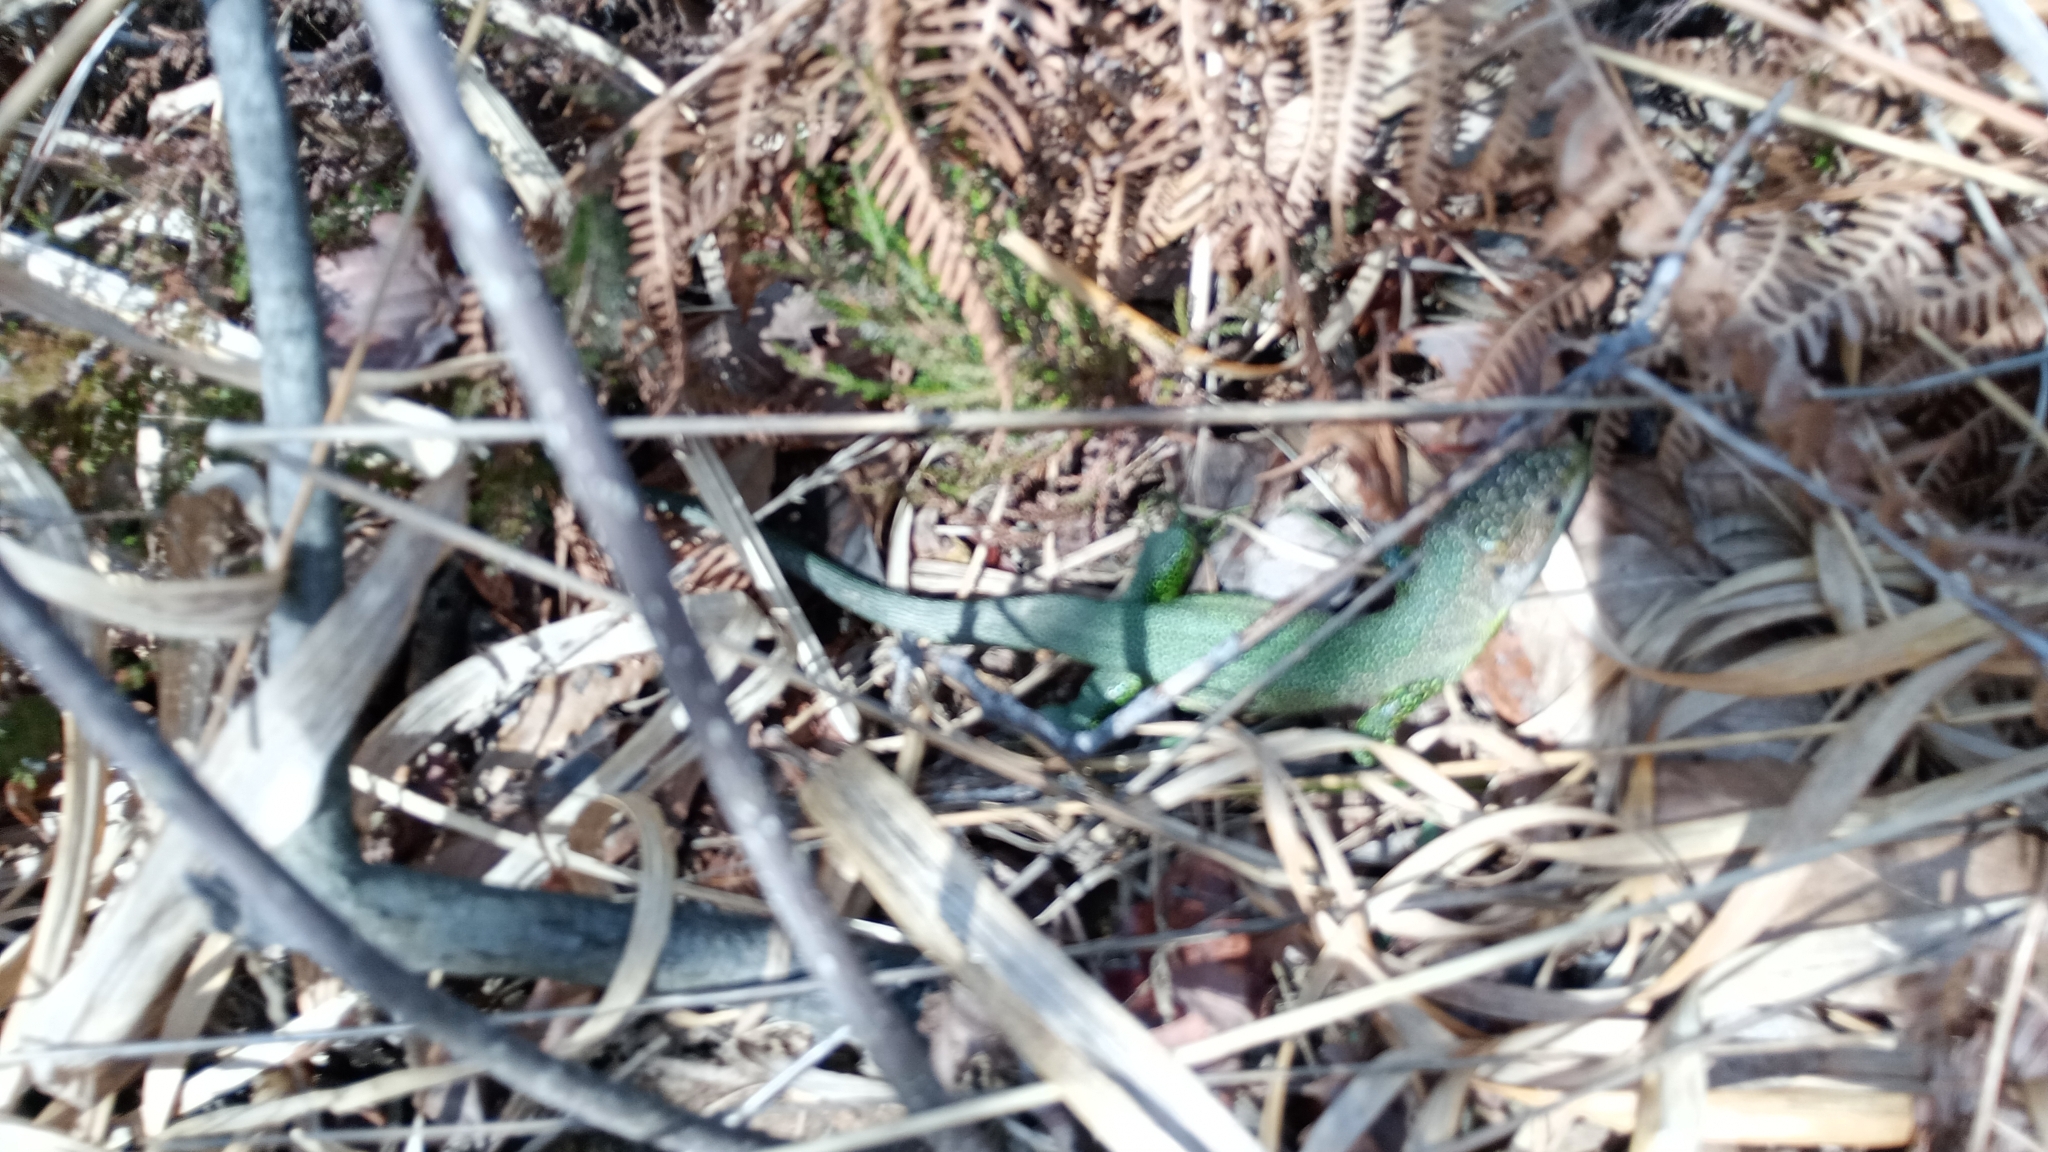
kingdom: Animalia
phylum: Chordata
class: Squamata
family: Lacertidae
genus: Lacerta
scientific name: Lacerta bilineata
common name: Western green lizard
